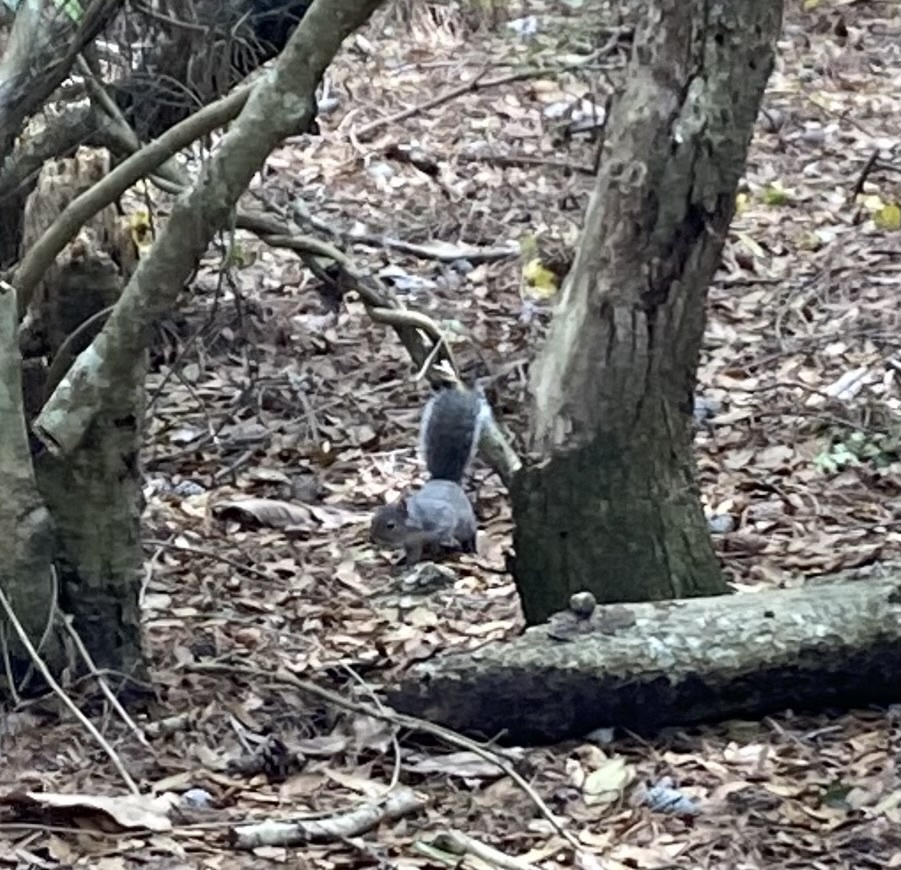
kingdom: Animalia
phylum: Chordata
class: Mammalia
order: Rodentia
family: Sciuridae
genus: Sciurus
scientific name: Sciurus carolinensis
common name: Eastern gray squirrel
